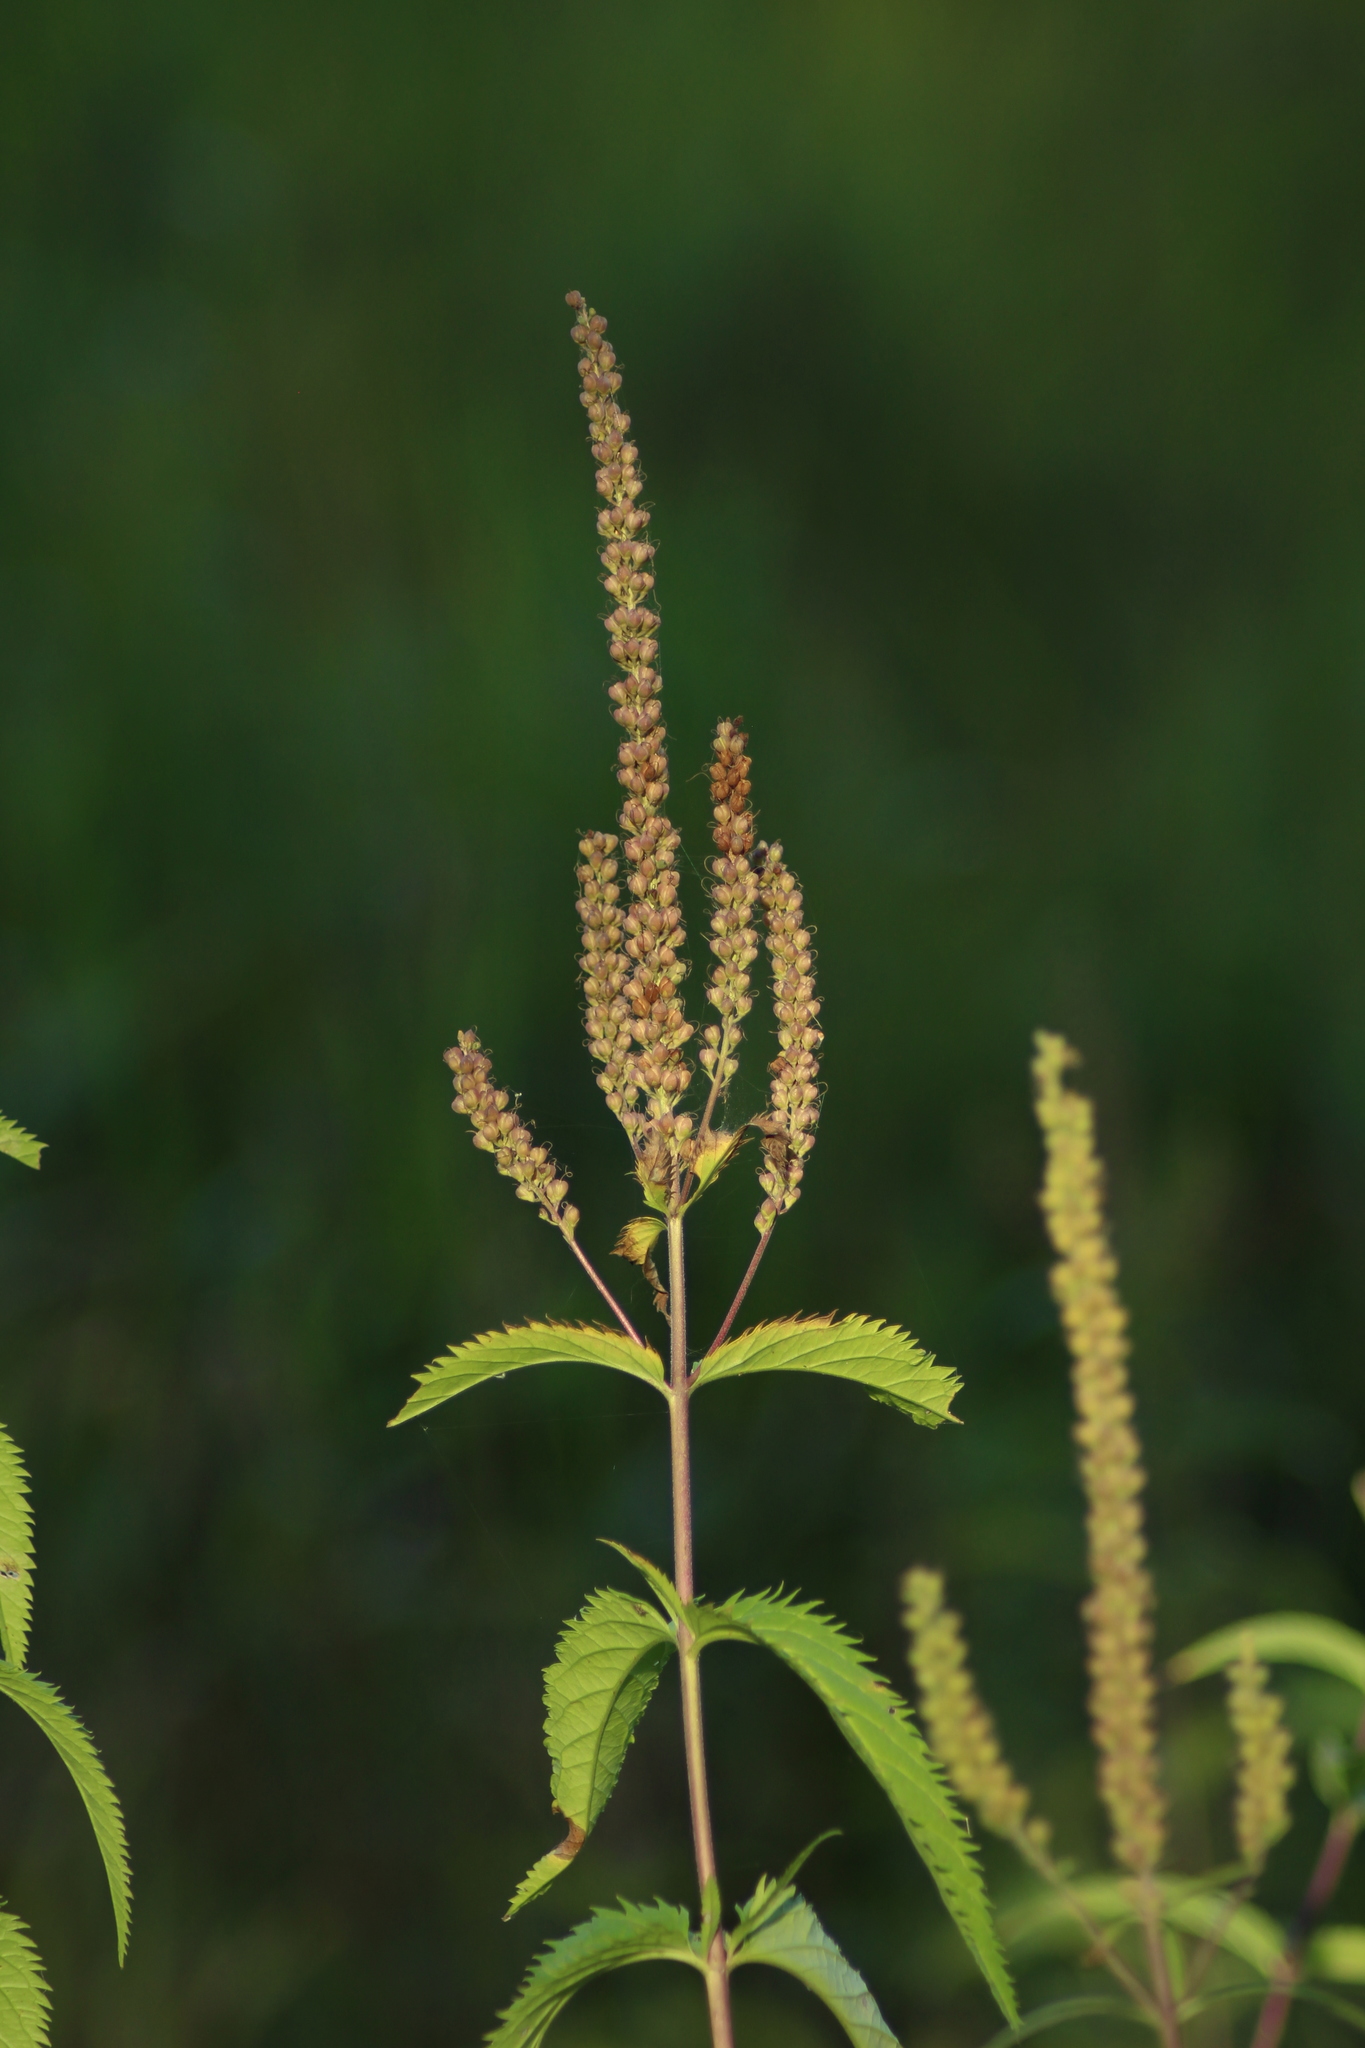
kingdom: Plantae
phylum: Tracheophyta
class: Magnoliopsida
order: Lamiales
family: Plantaginaceae
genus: Veronica
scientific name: Veronica longifolia
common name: Garden speedwell
